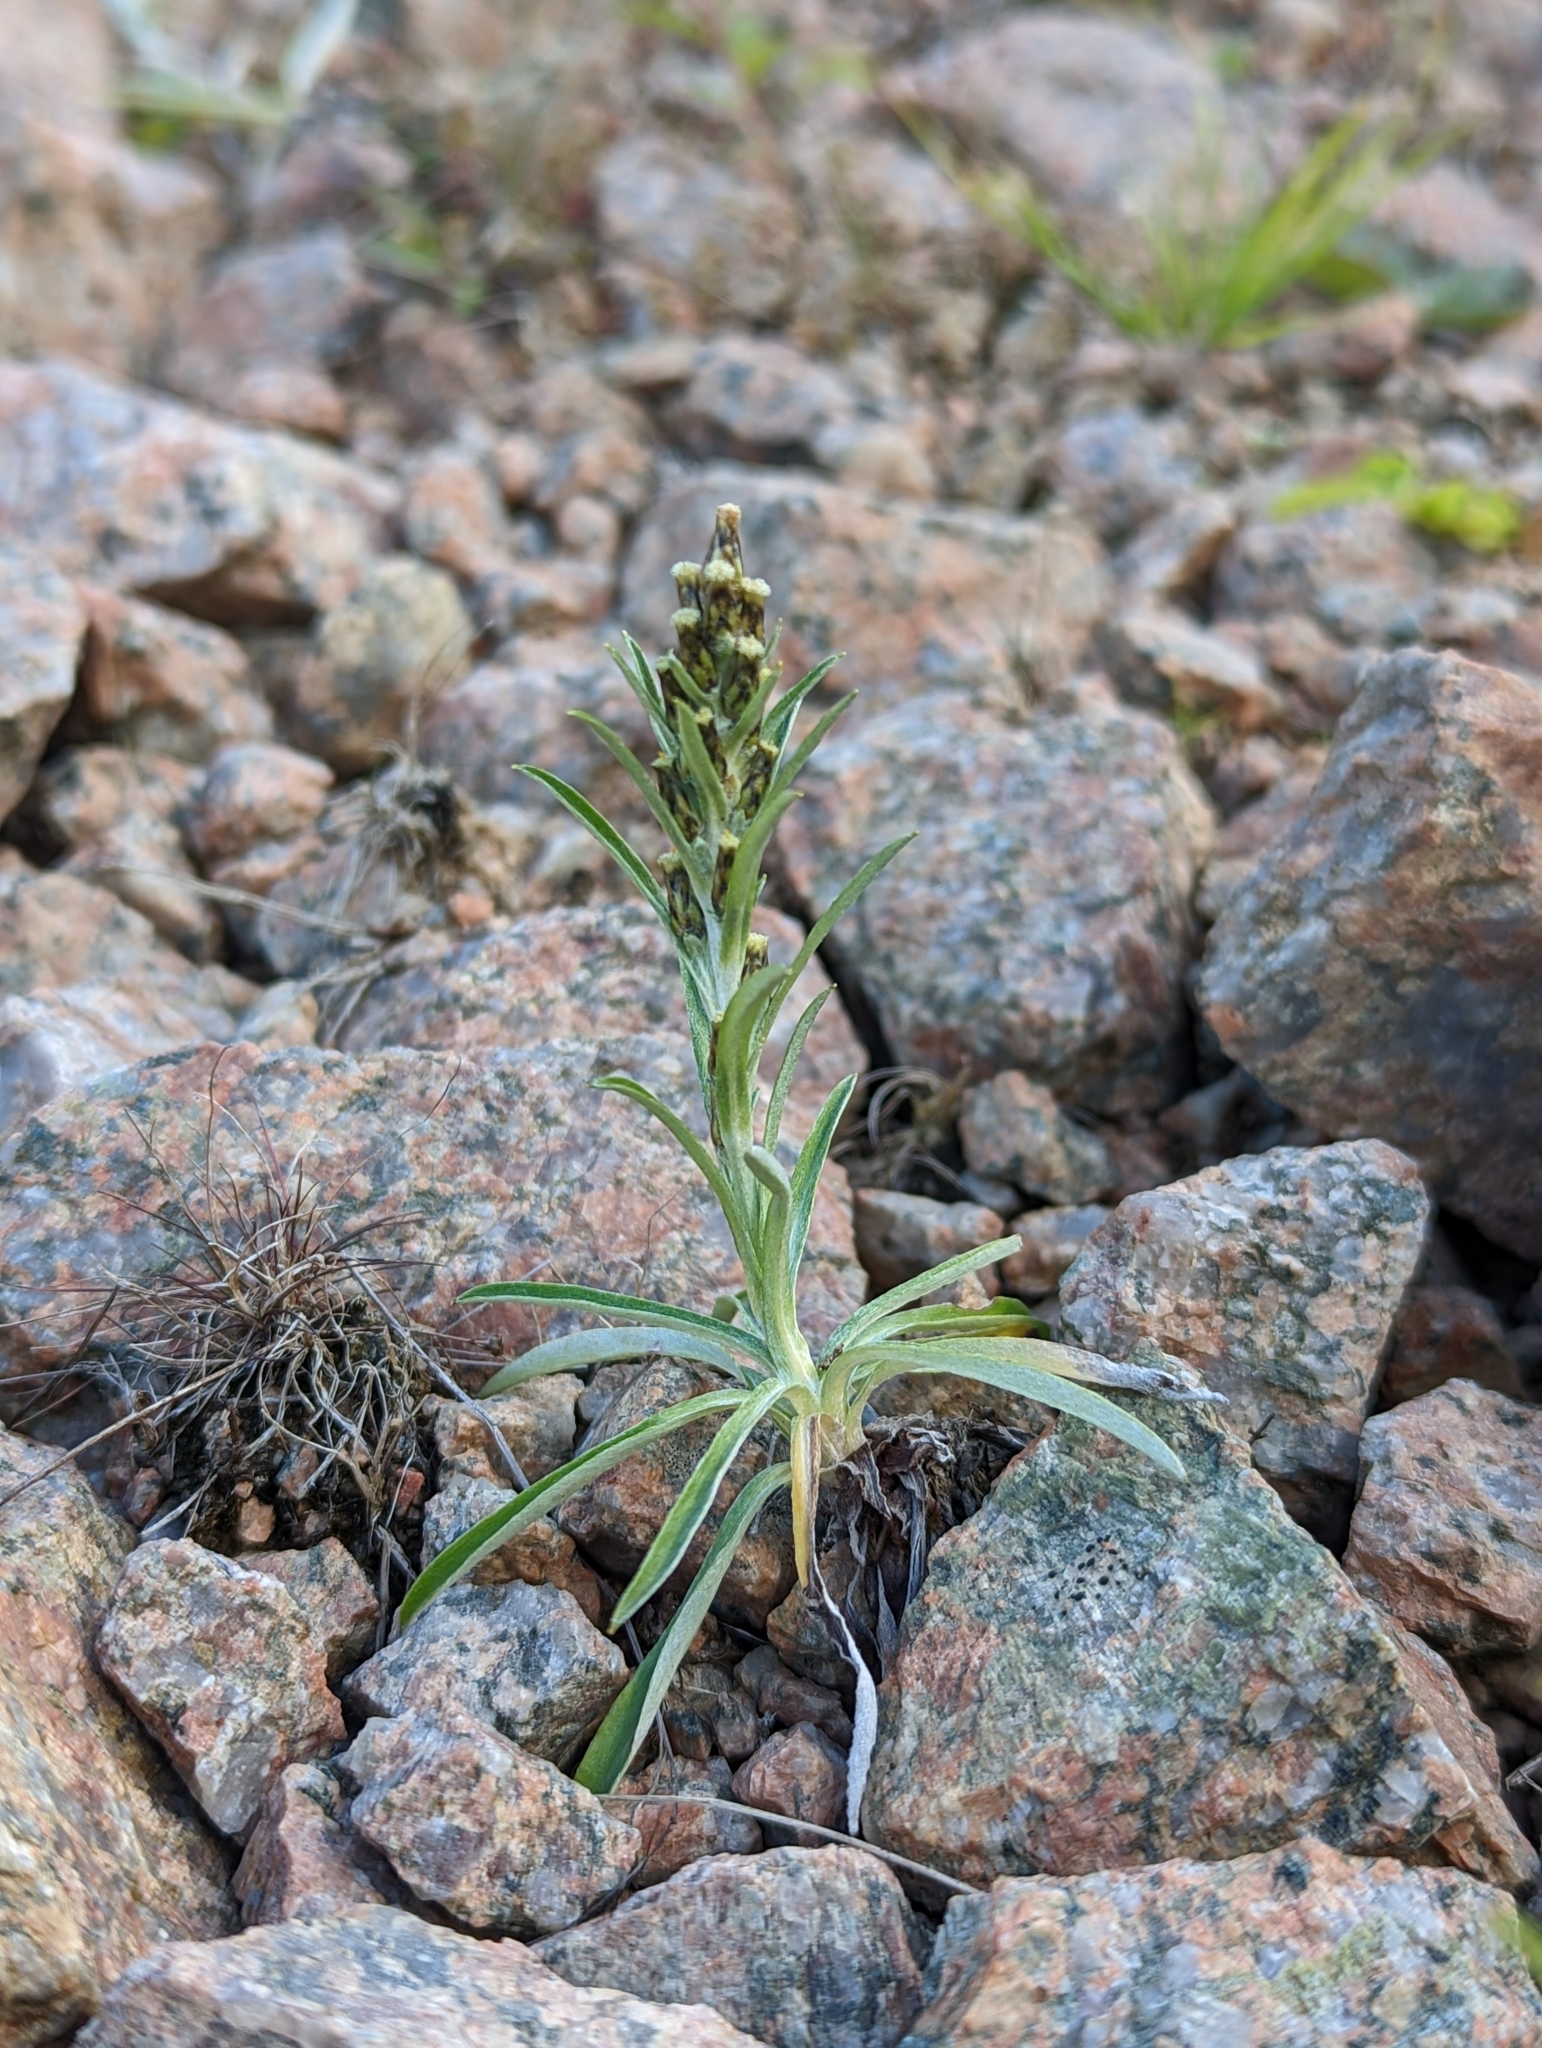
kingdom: Plantae
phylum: Tracheophyta
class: Magnoliopsida
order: Asterales
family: Asteraceae
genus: Omalotheca
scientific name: Omalotheca sylvatica
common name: Heath cudweed
